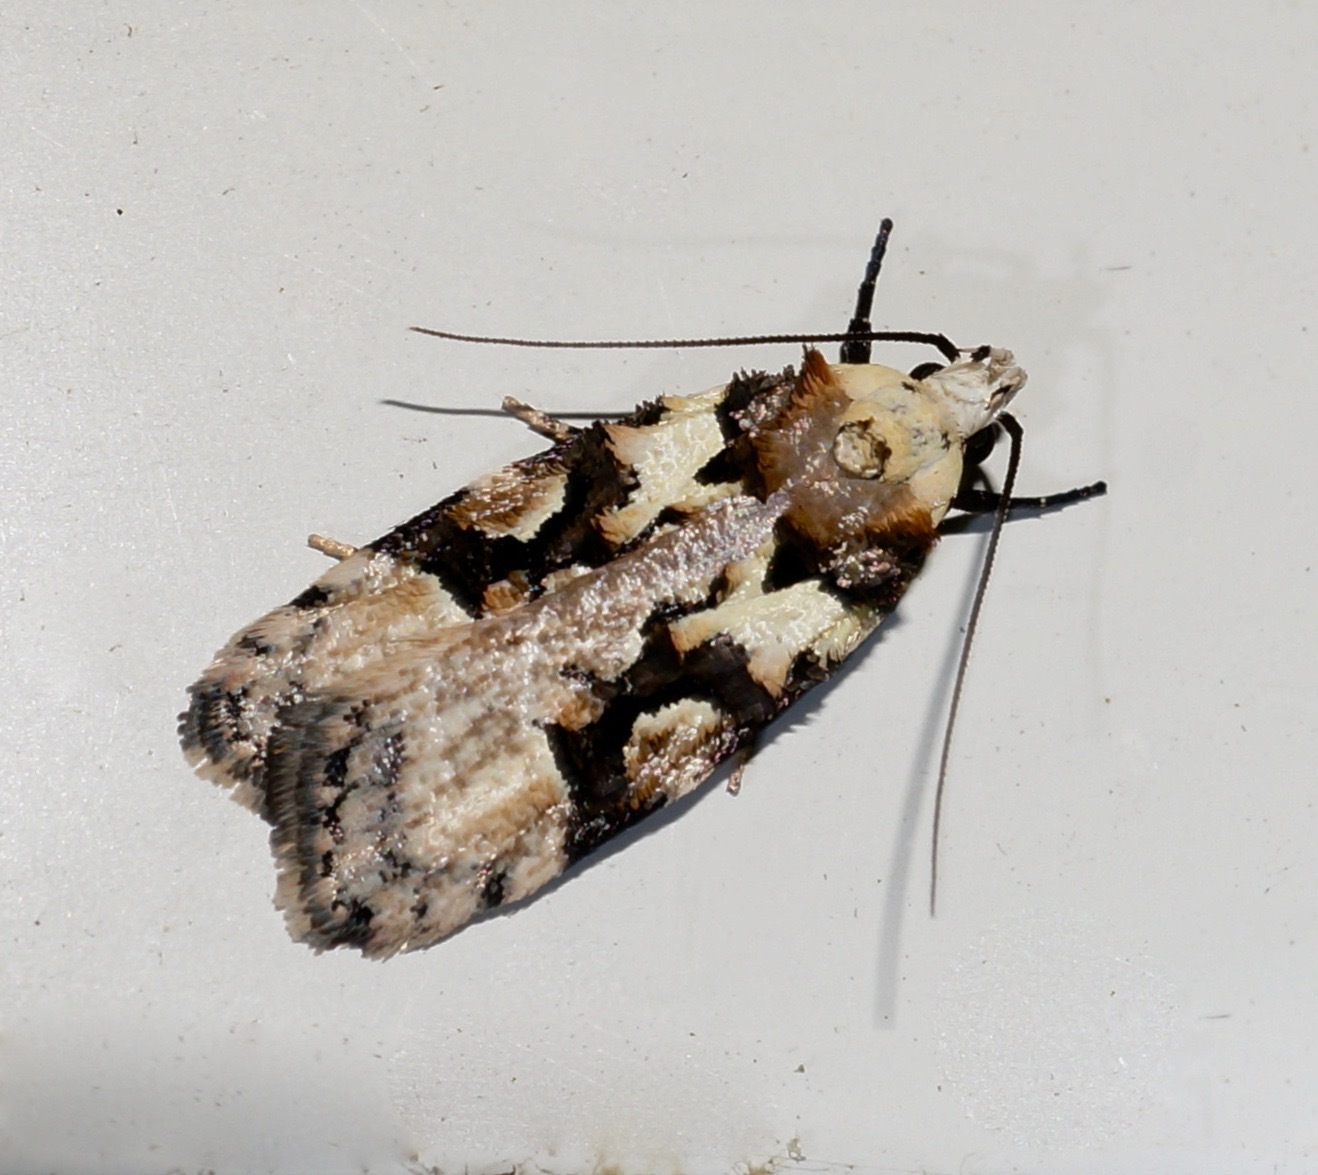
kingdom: Animalia
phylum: Arthropoda
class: Insecta
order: Lepidoptera
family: Oecophoridae
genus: Izatha
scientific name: Izatha epiphanes
